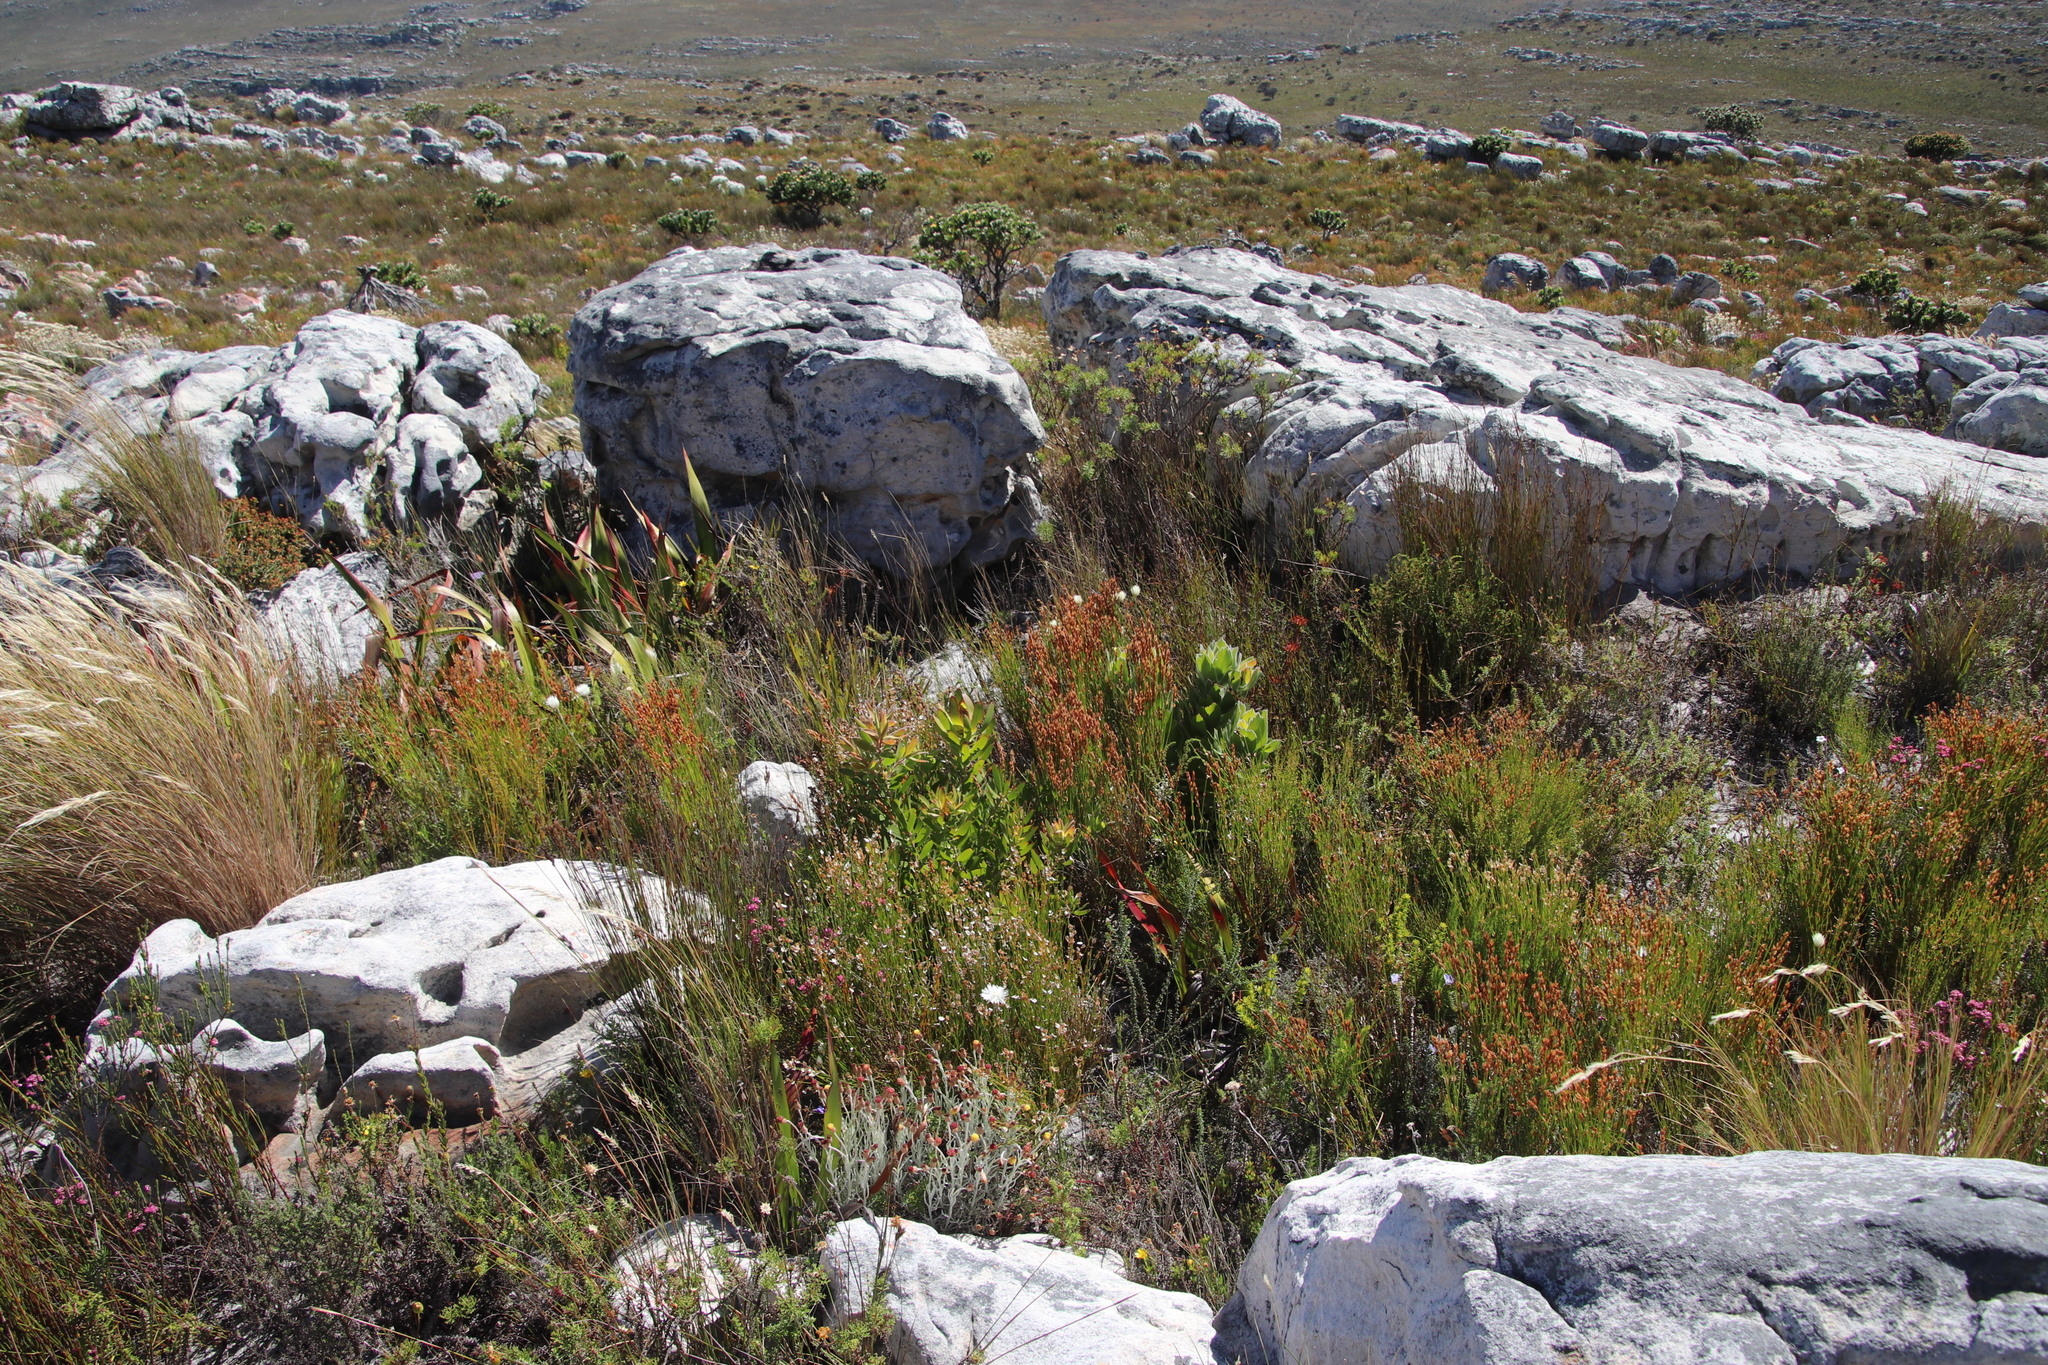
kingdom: Plantae
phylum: Tracheophyta
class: Magnoliopsida
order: Proteales
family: Proteaceae
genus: Leucadendron
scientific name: Leucadendron laureolum
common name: Golden sunshinebush
